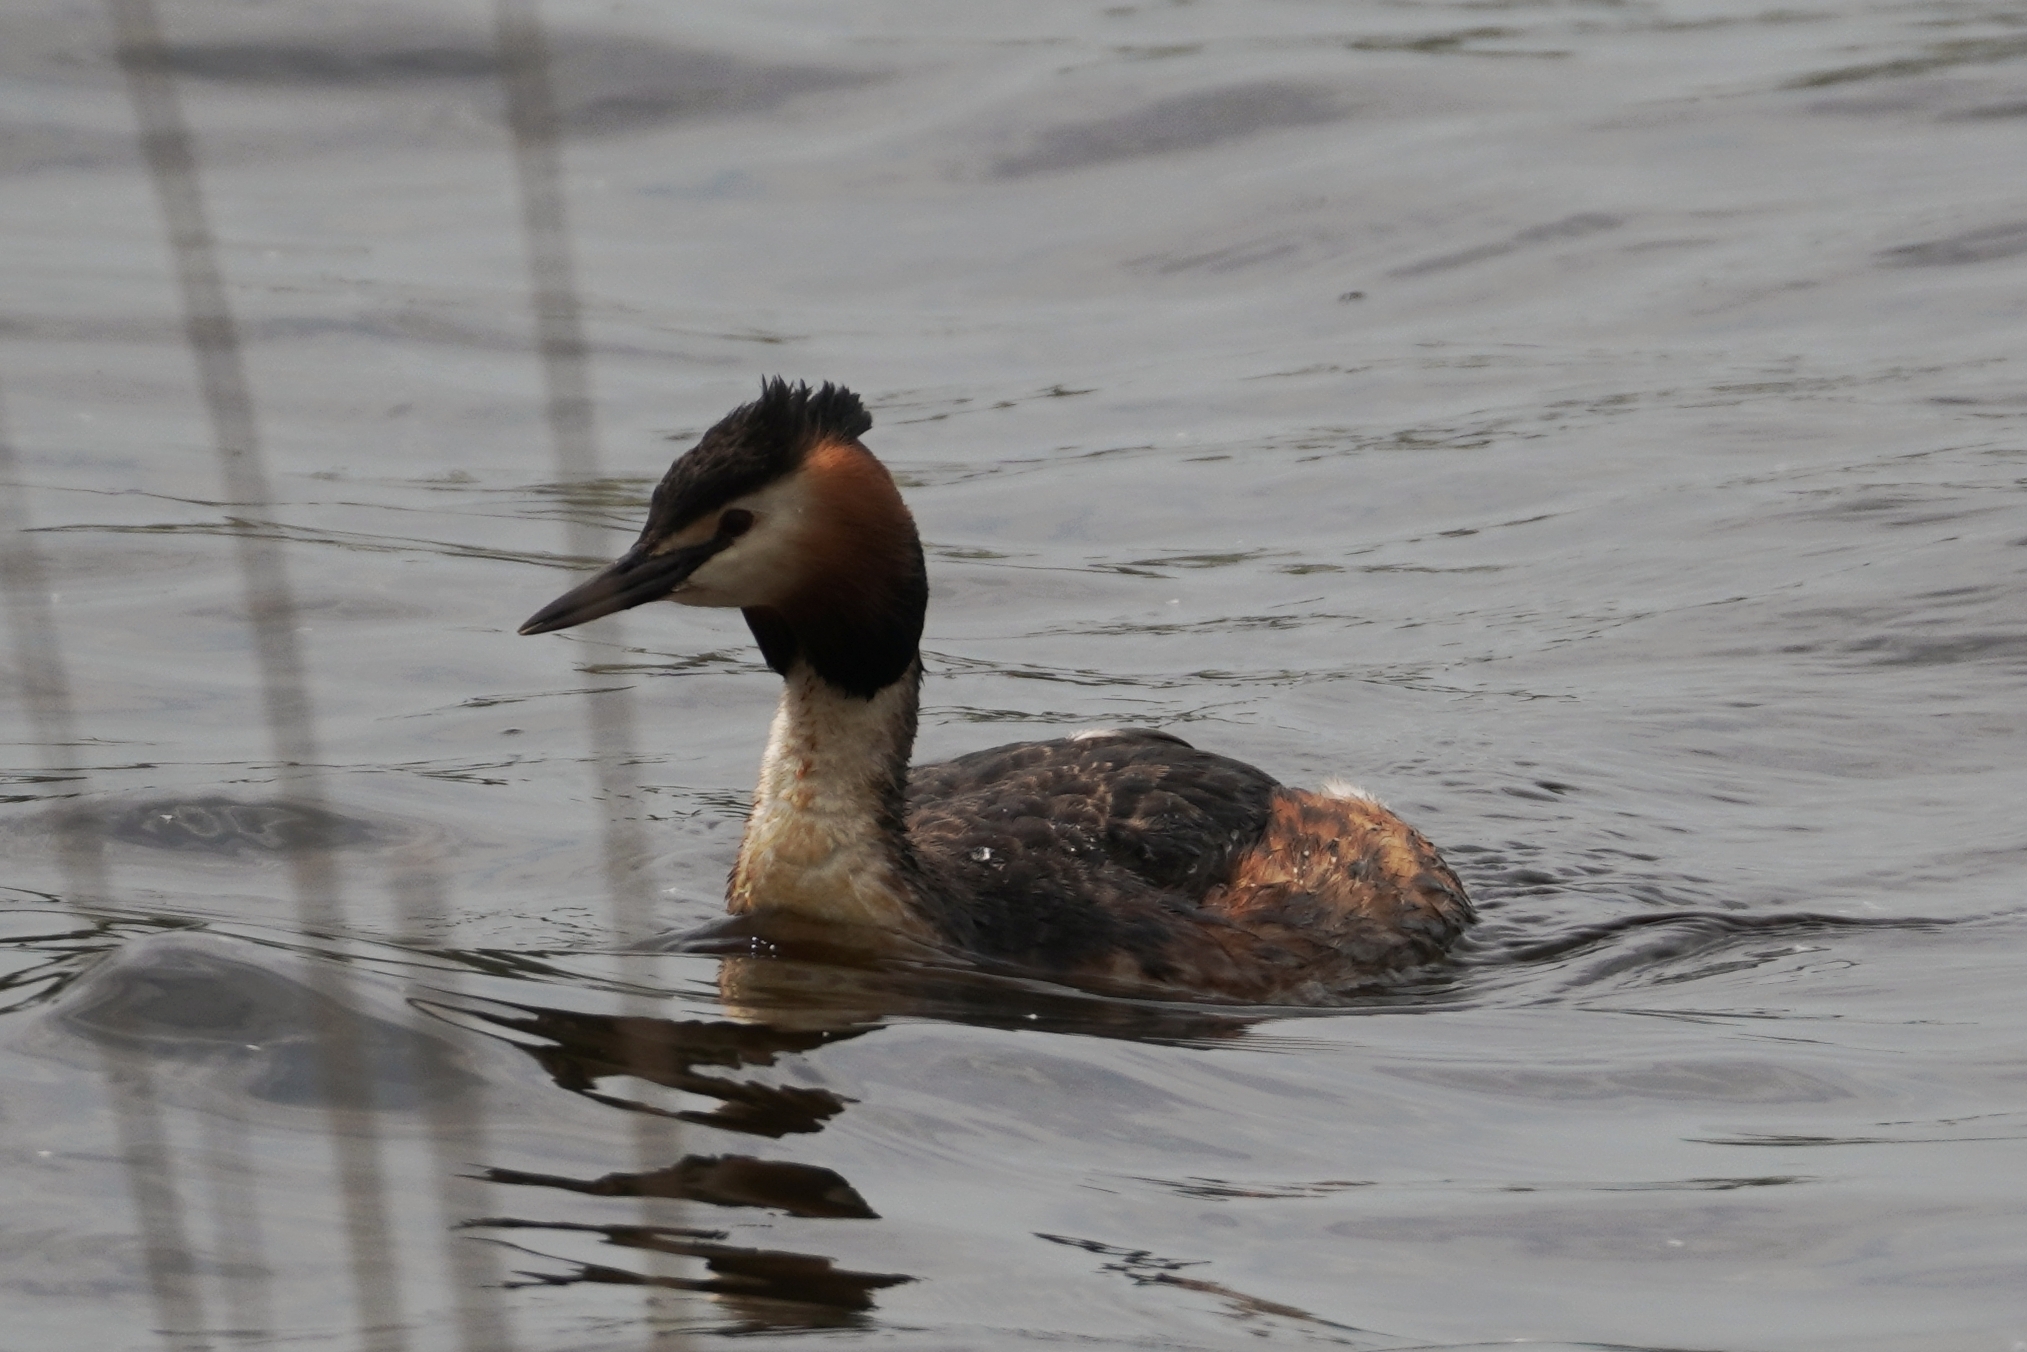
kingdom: Animalia
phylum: Chordata
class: Aves
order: Podicipediformes
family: Podicipedidae
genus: Podiceps
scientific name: Podiceps cristatus
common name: Great crested grebe
